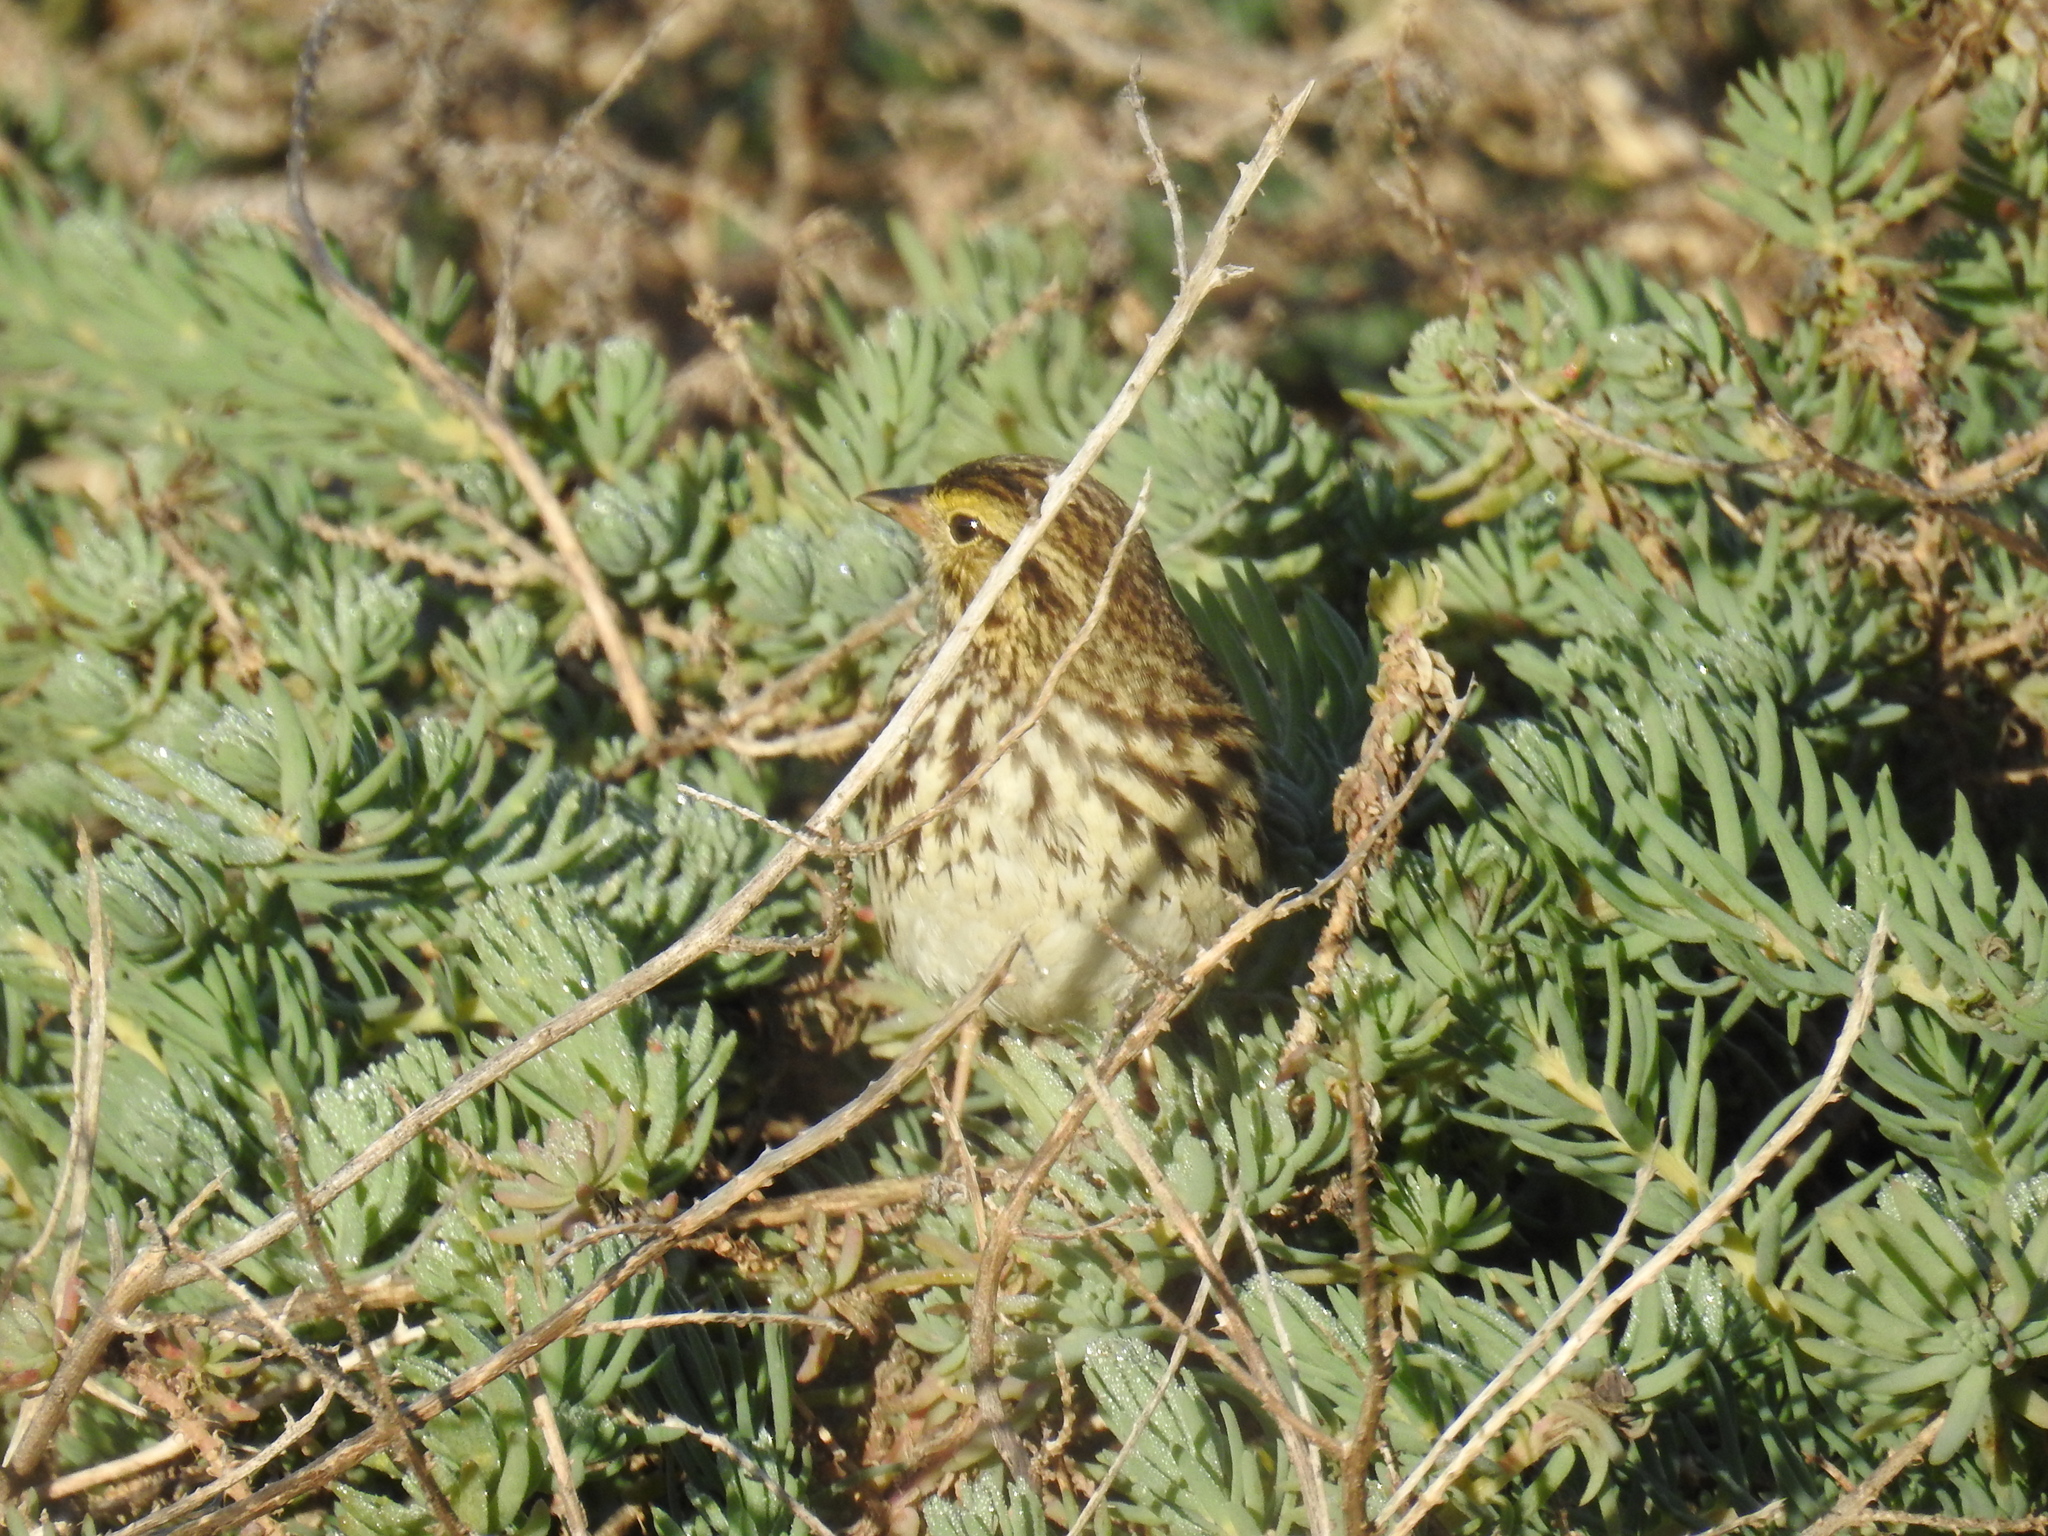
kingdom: Animalia
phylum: Chordata
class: Aves
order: Passeriformes
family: Passerellidae
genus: Passerculus
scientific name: Passerculus sandwichensis
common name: Savannah sparrow
